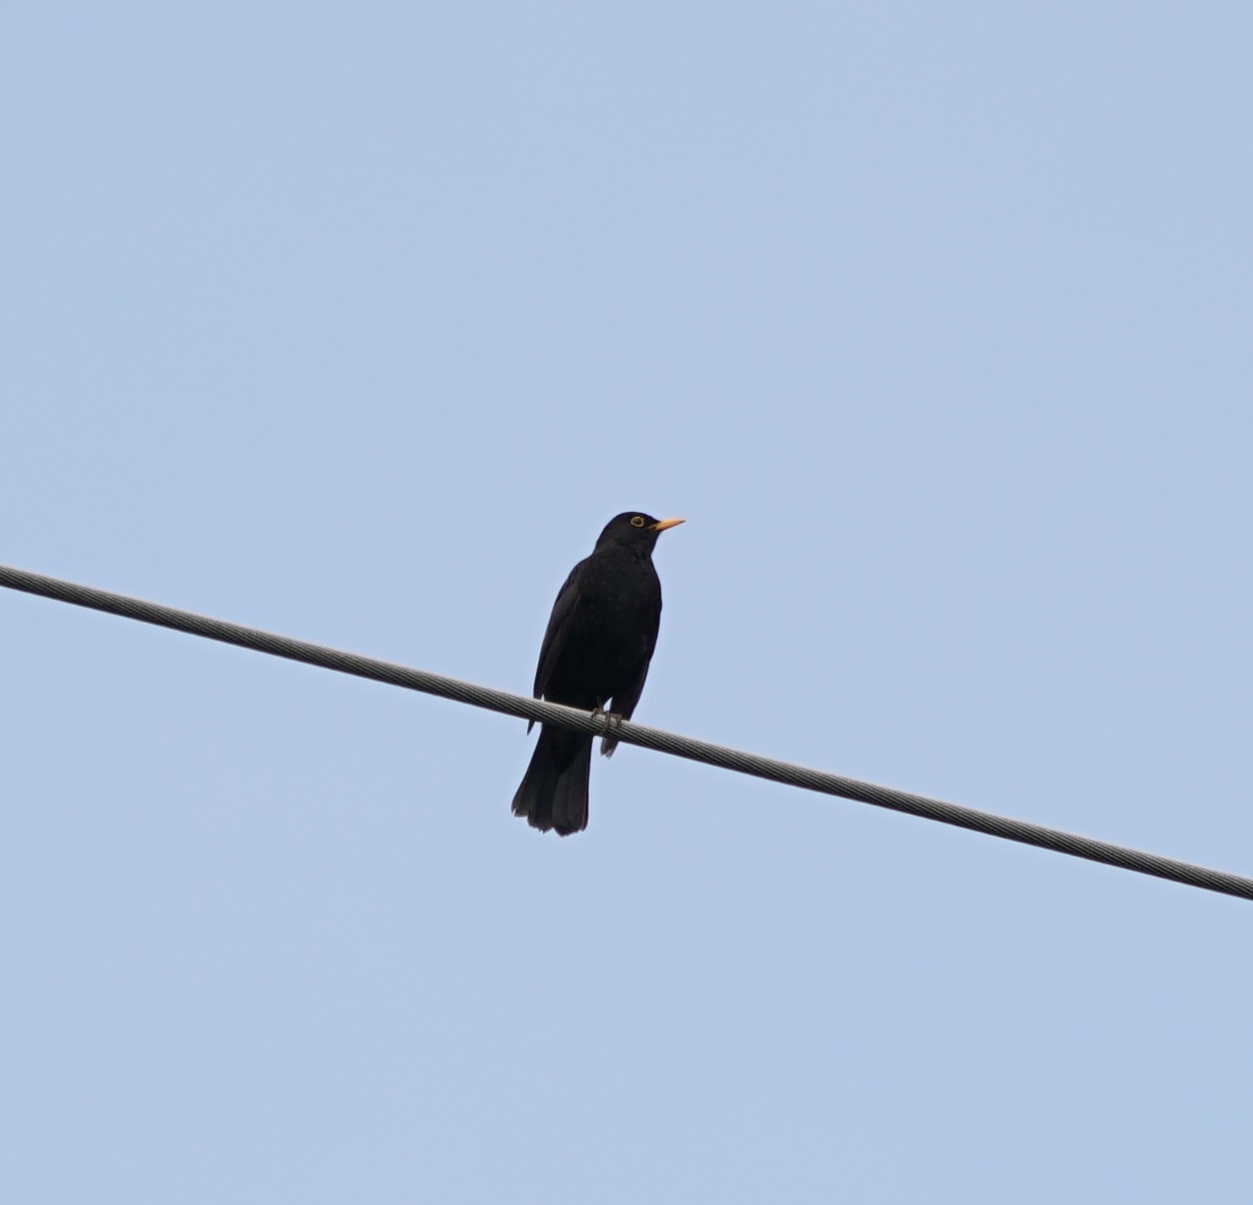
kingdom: Animalia
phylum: Chordata
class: Aves
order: Passeriformes
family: Turdidae
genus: Turdus
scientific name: Turdus merula
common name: Common blackbird
